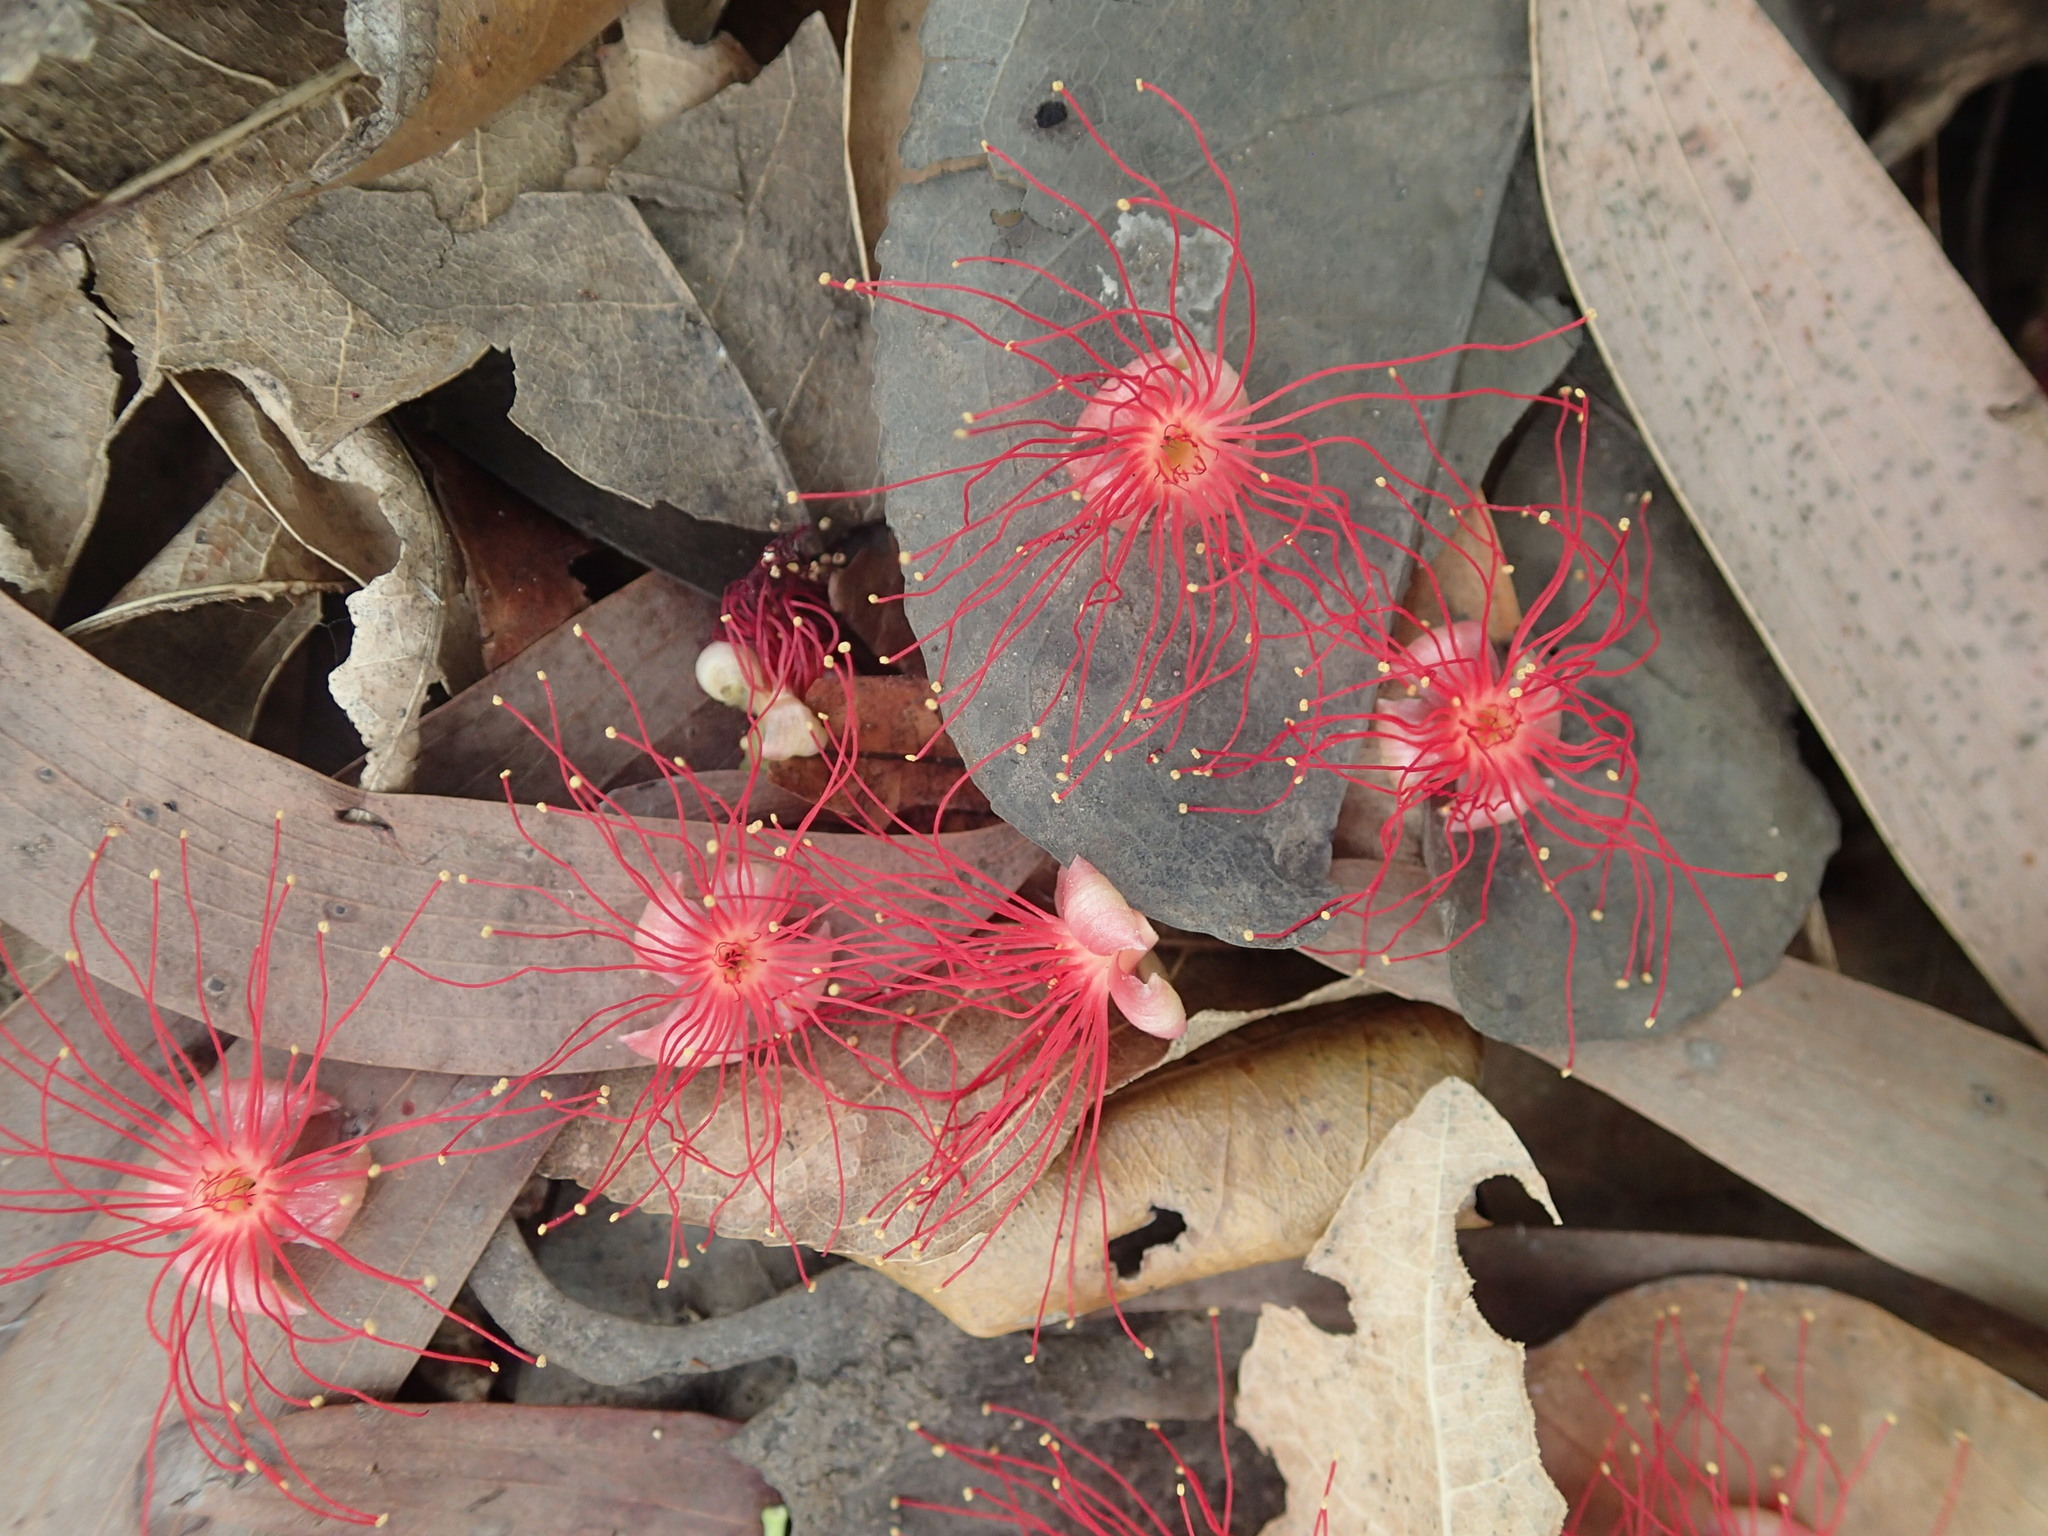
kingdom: Plantae
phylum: Tracheophyta
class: Magnoliopsida
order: Ericales
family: Lecythidaceae
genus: Barringtonia
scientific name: Barringtonia acutangula
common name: Freshwater mangrove
